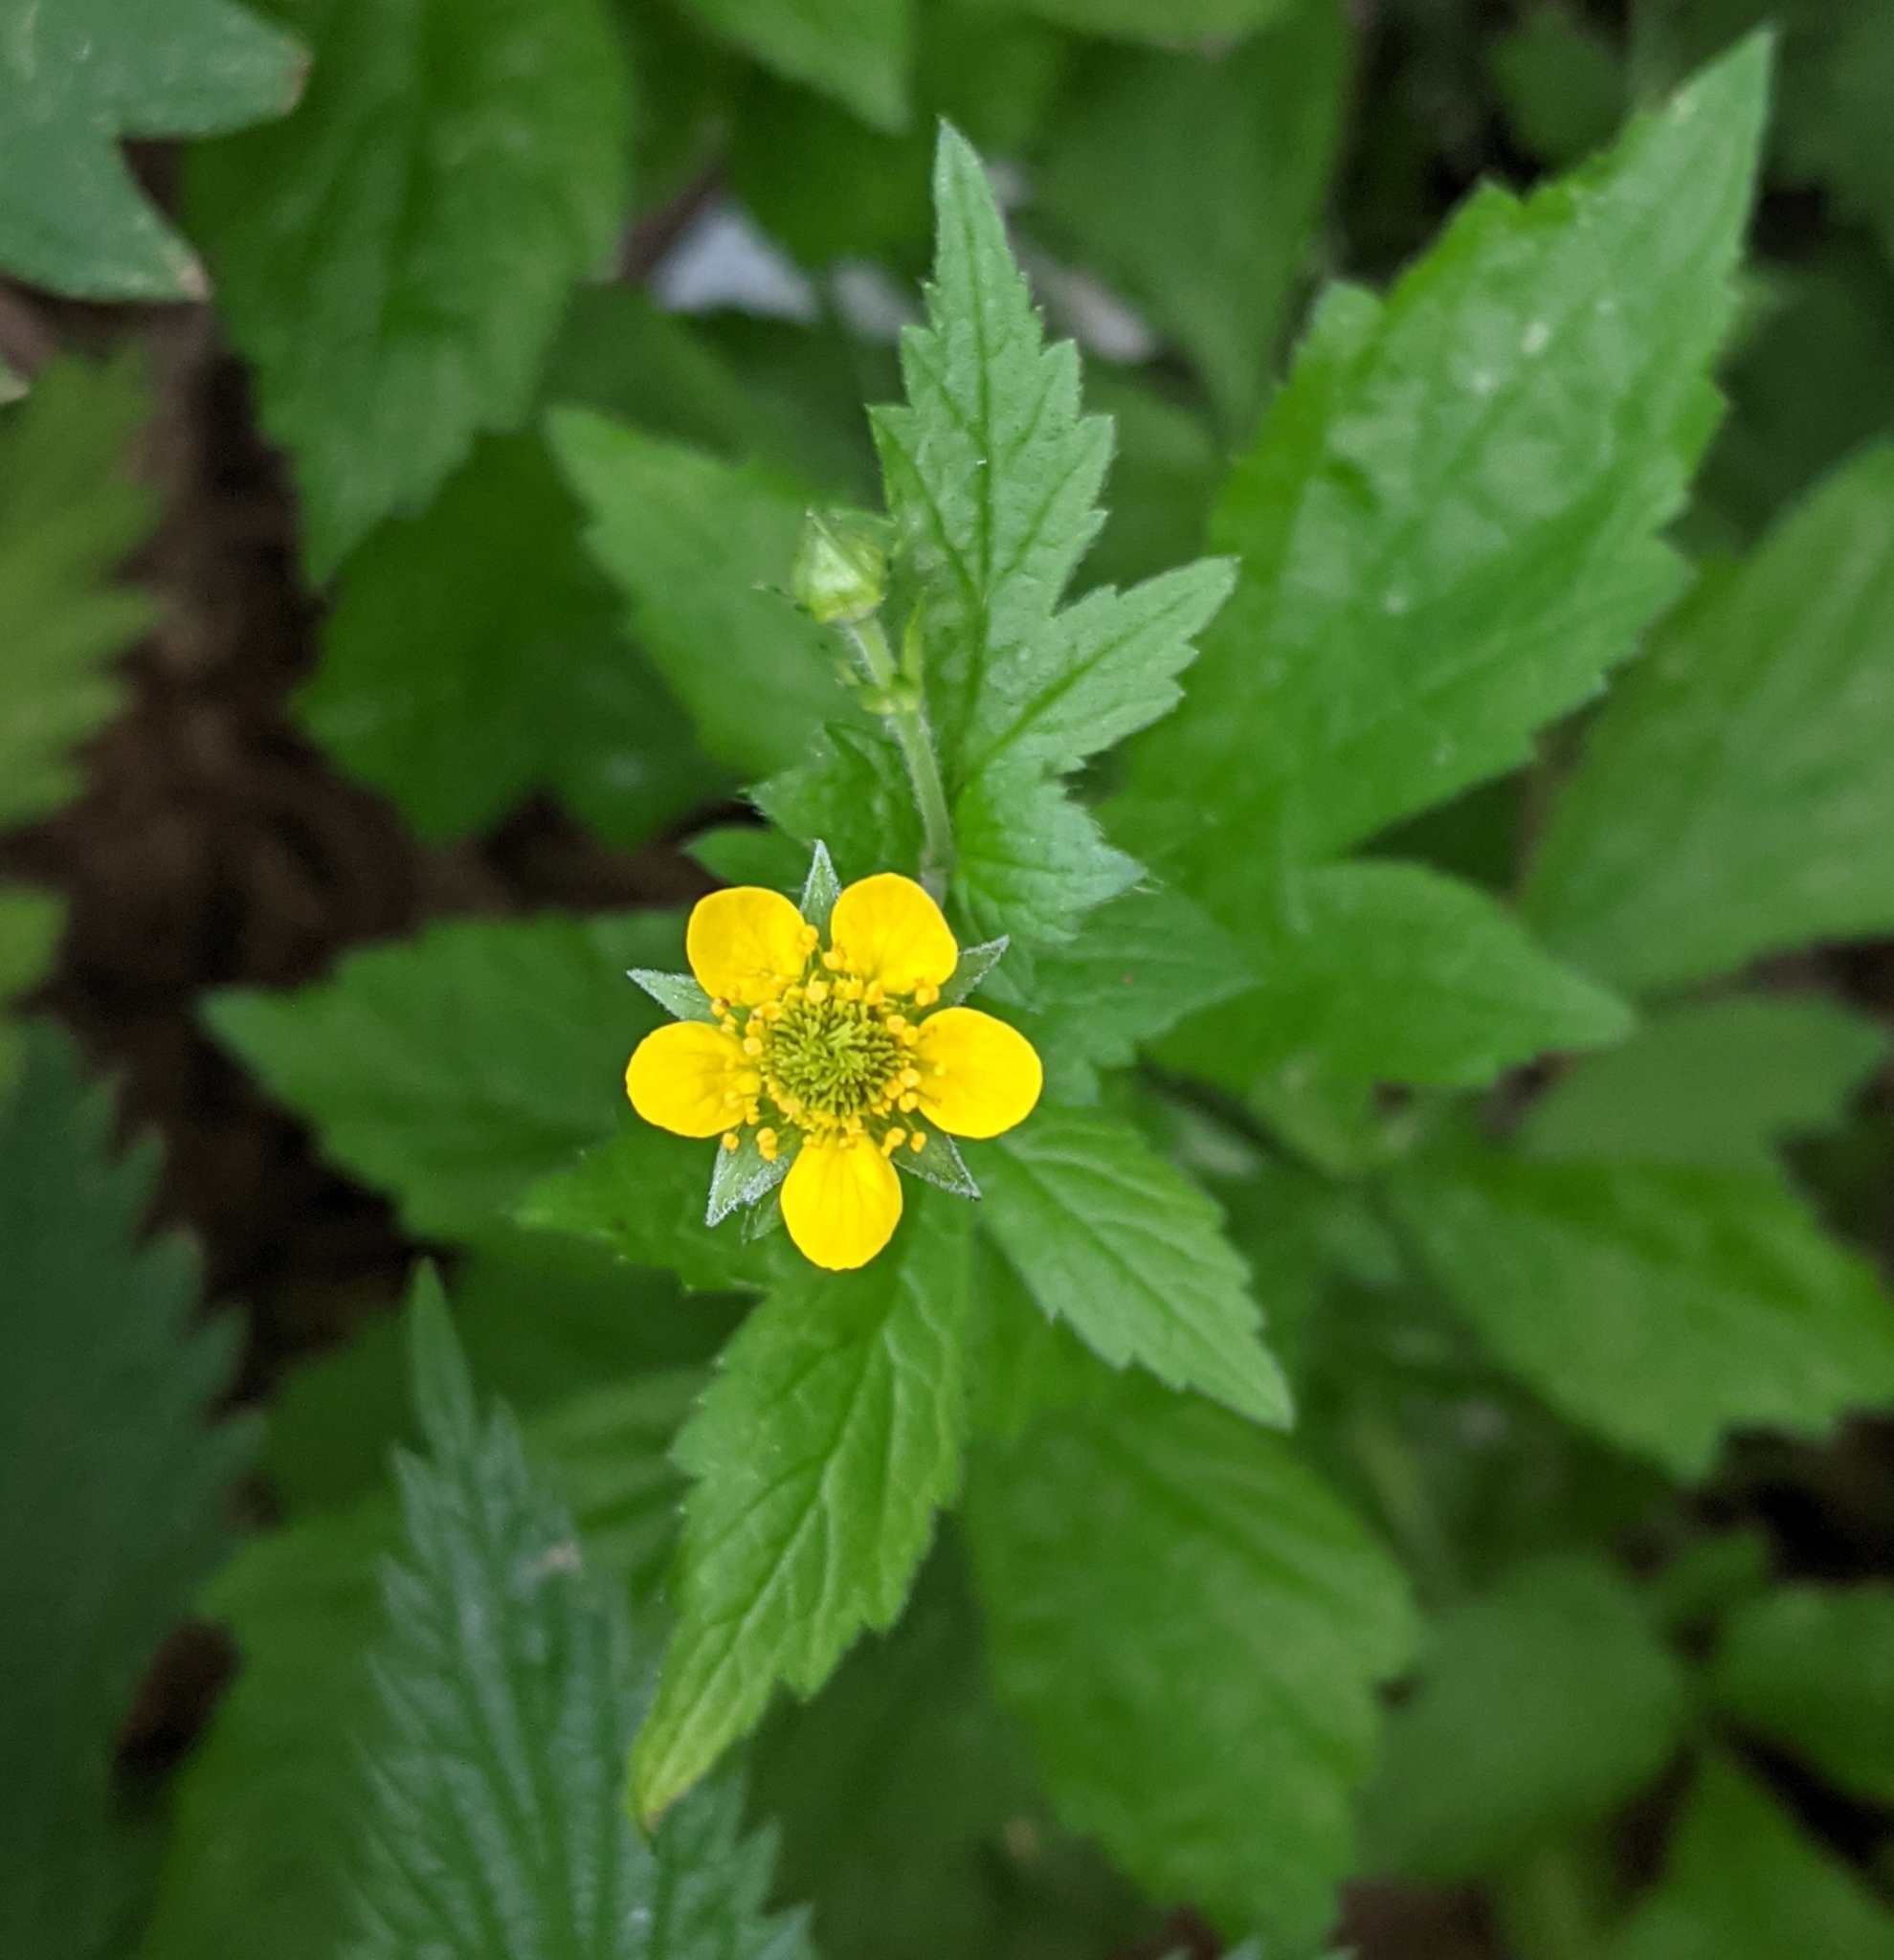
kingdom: Plantae
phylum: Tracheophyta
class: Magnoliopsida
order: Rosales
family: Rosaceae
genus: Geum
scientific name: Geum urbanum
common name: Wood avens
